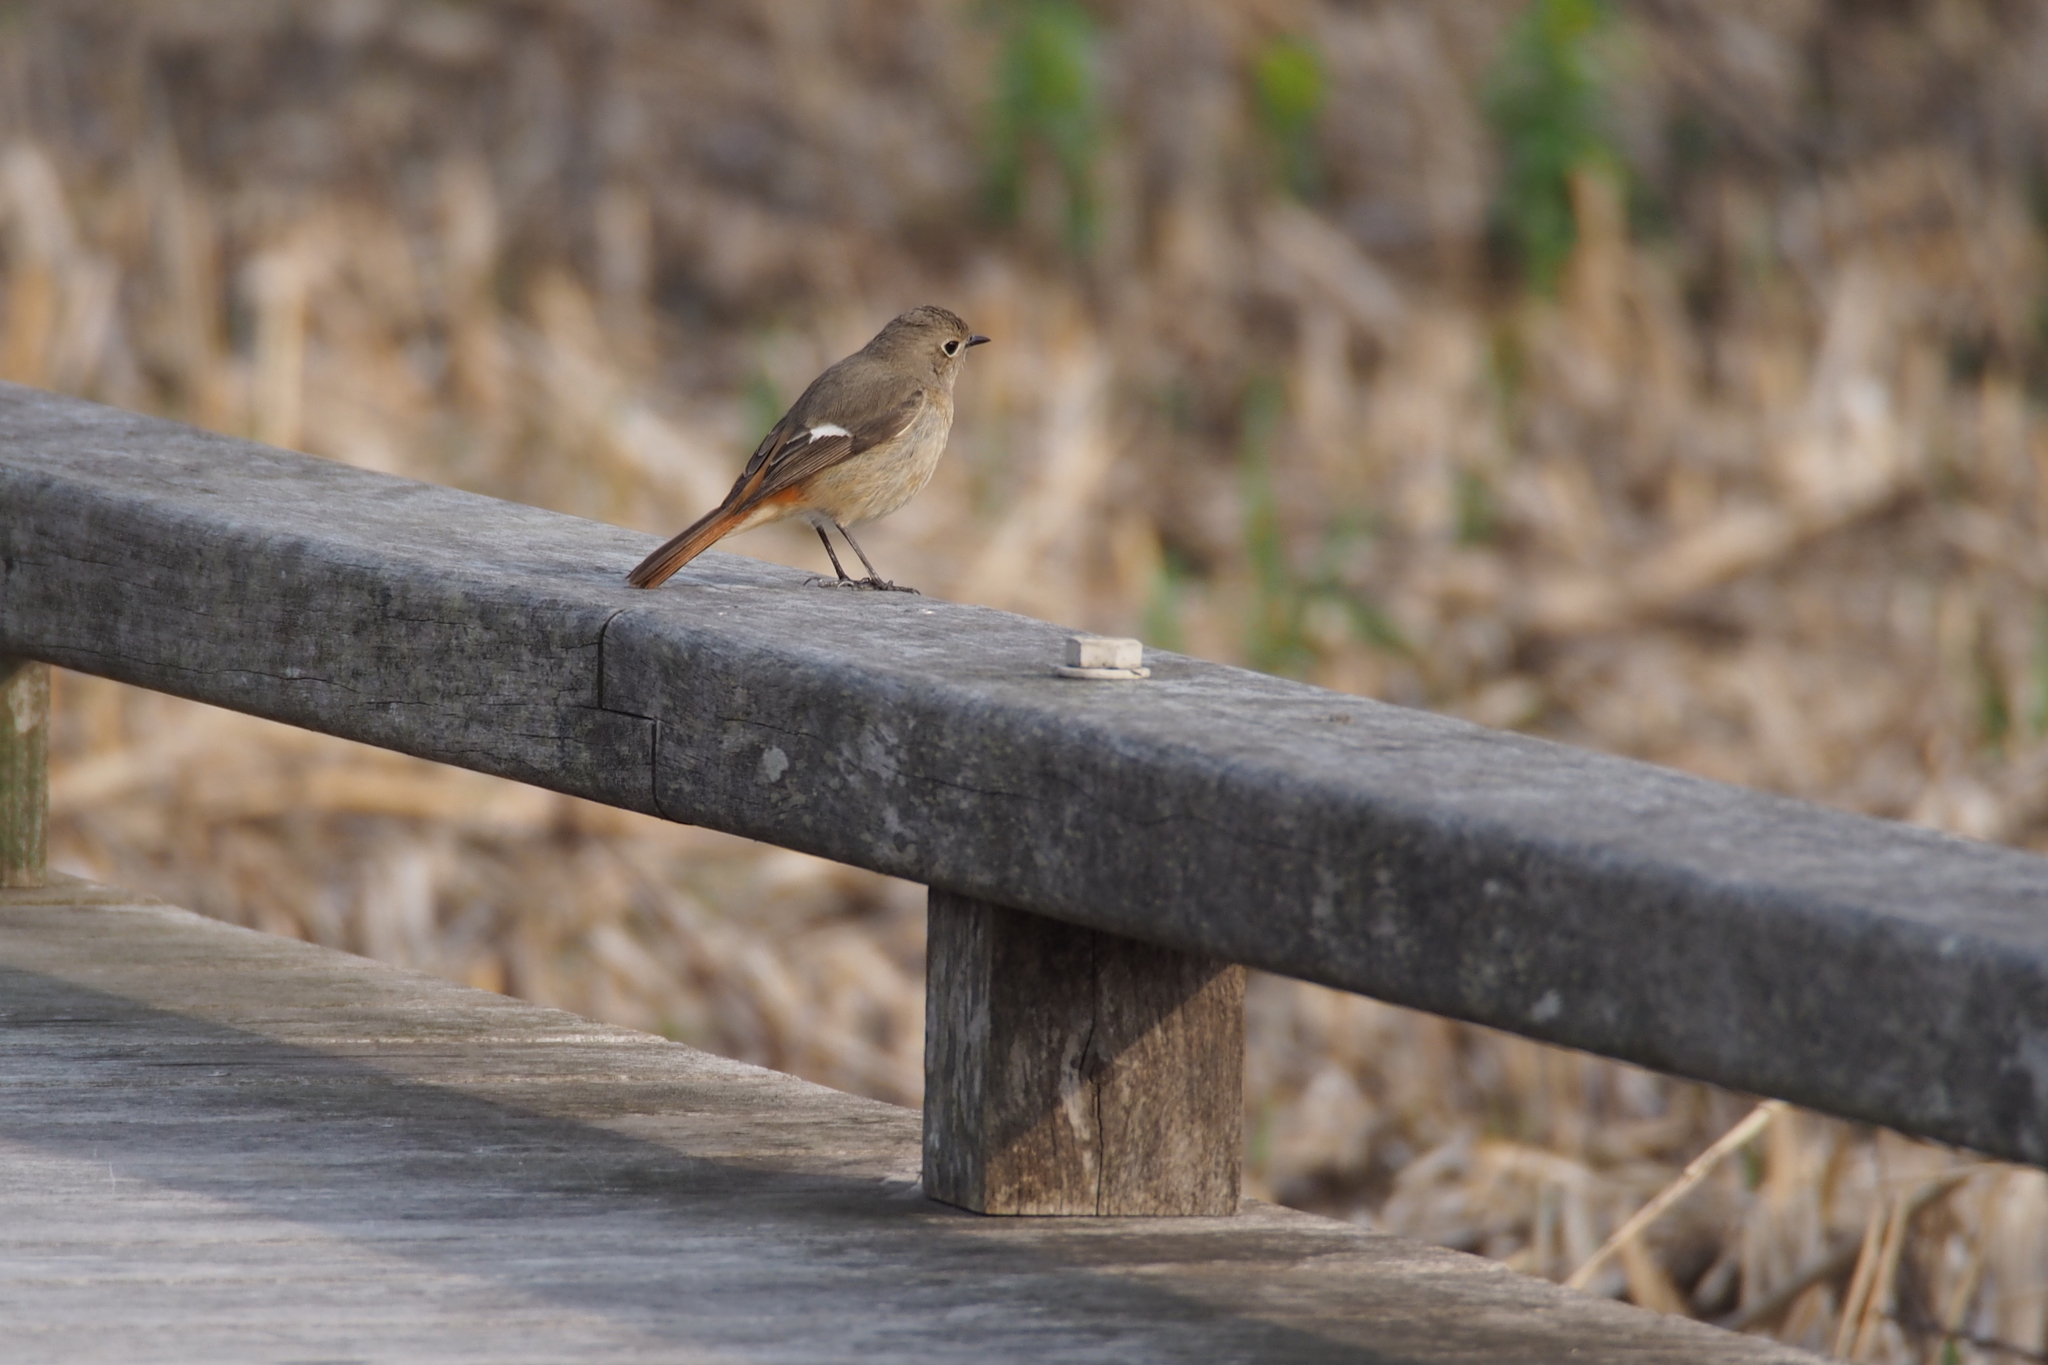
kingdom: Animalia
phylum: Chordata
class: Aves
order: Passeriformes
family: Muscicapidae
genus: Phoenicurus
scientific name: Phoenicurus auroreus
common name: Daurian redstart
